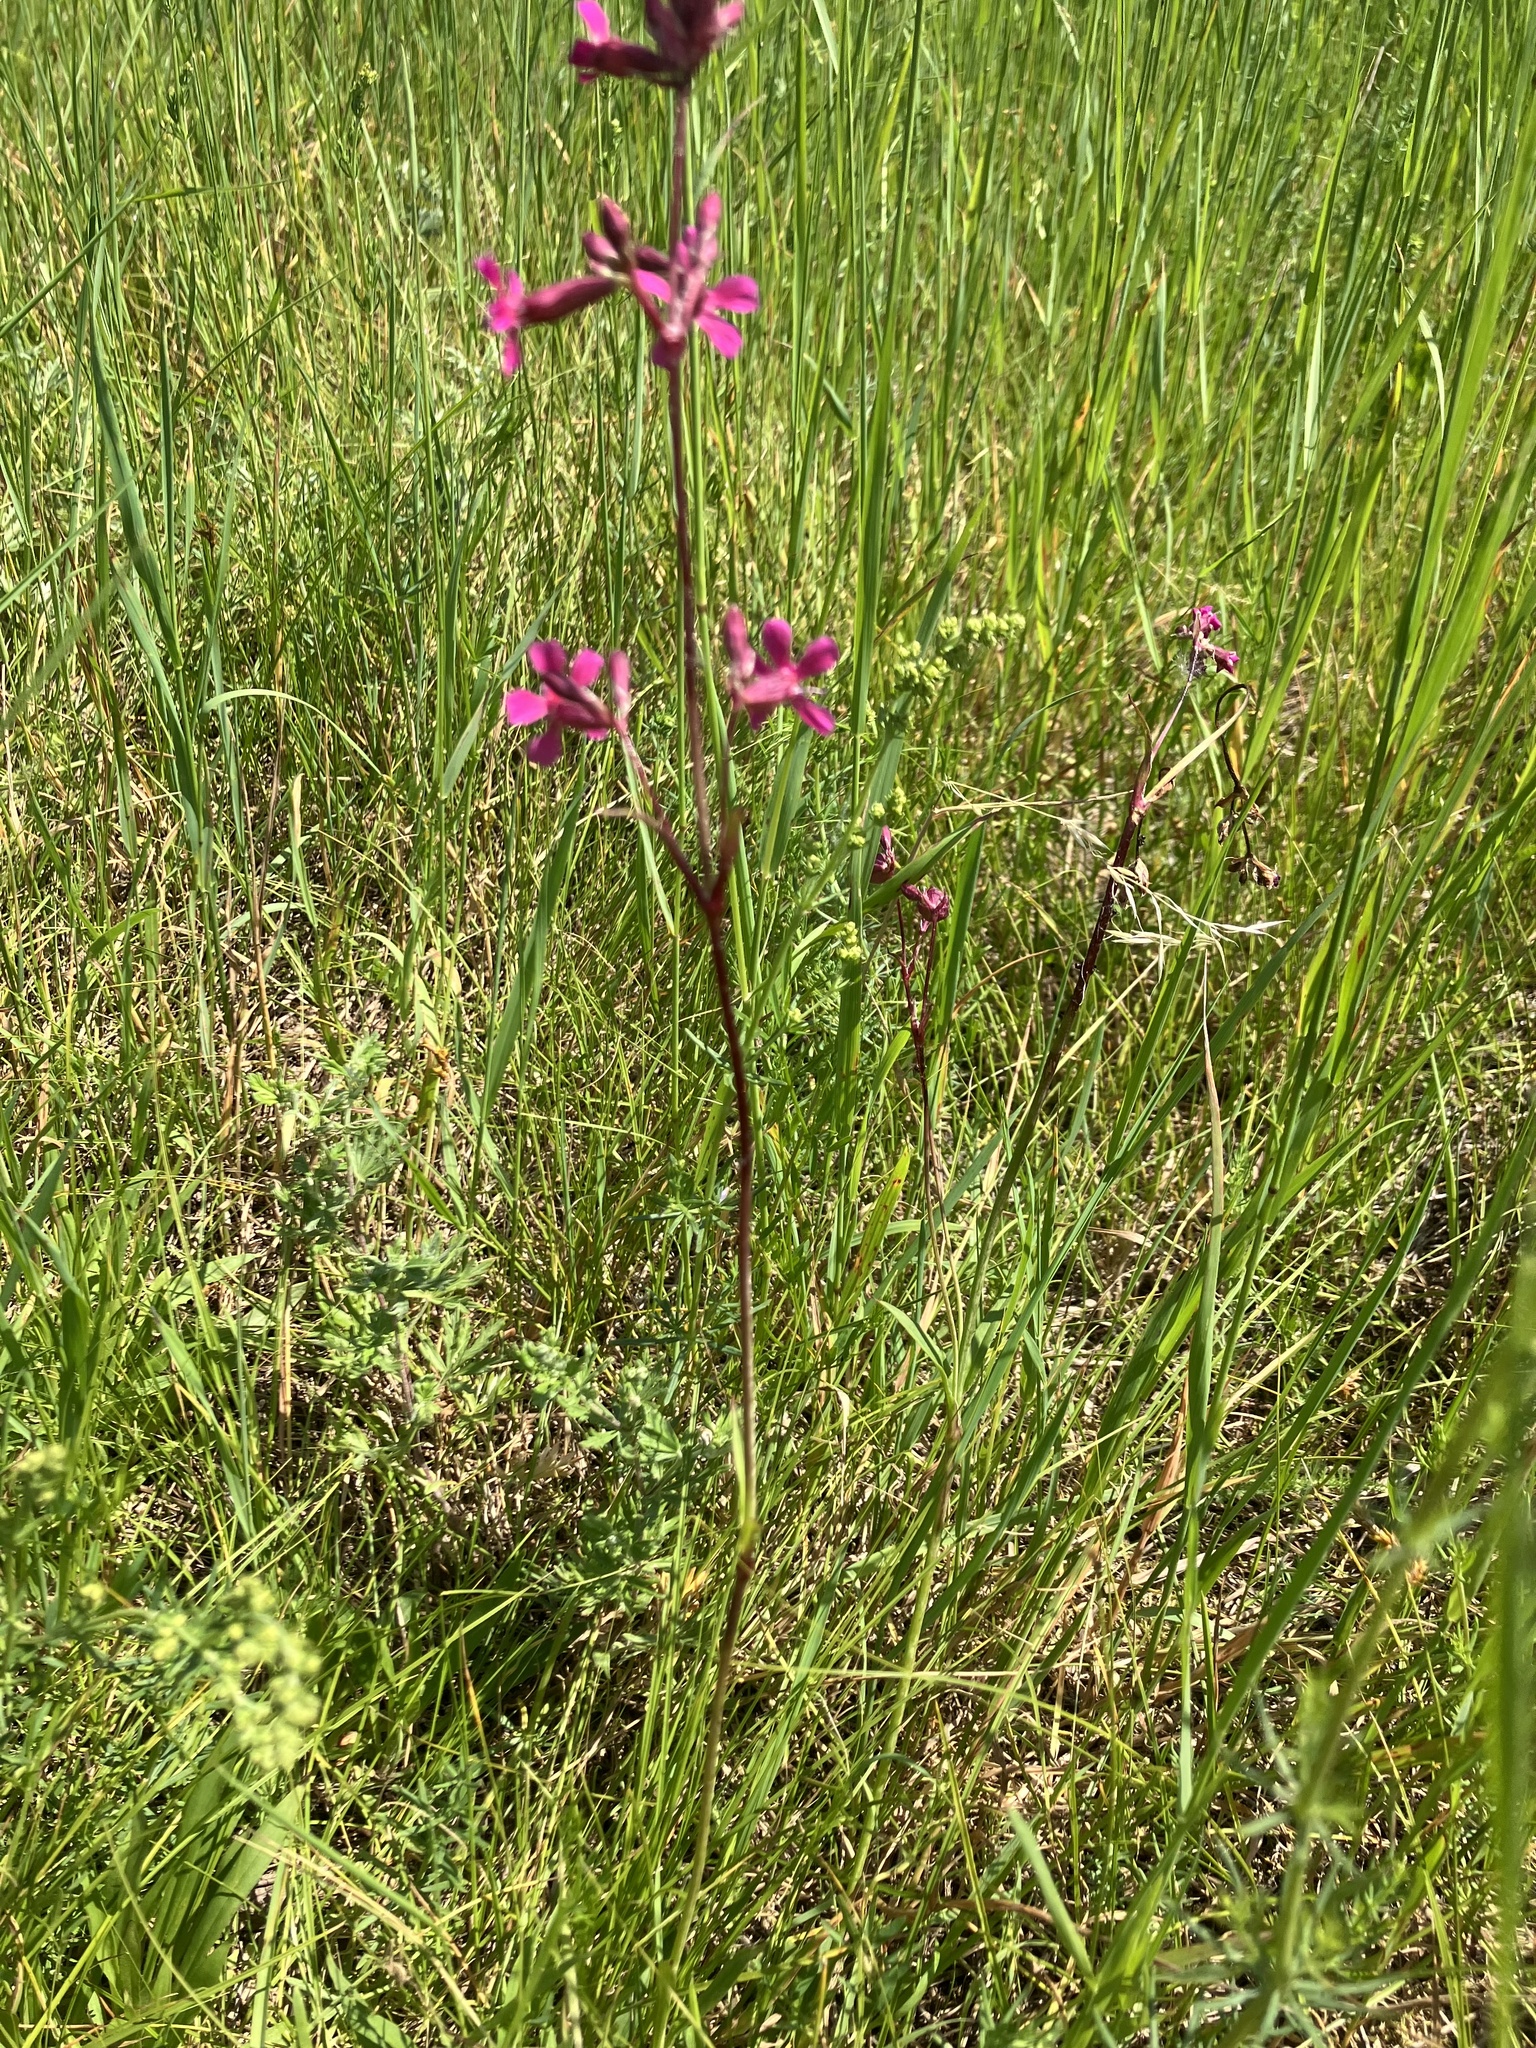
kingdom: Plantae
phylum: Tracheophyta
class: Magnoliopsida
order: Caryophyllales
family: Caryophyllaceae
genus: Viscaria
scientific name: Viscaria vulgaris
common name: Clammy campion
